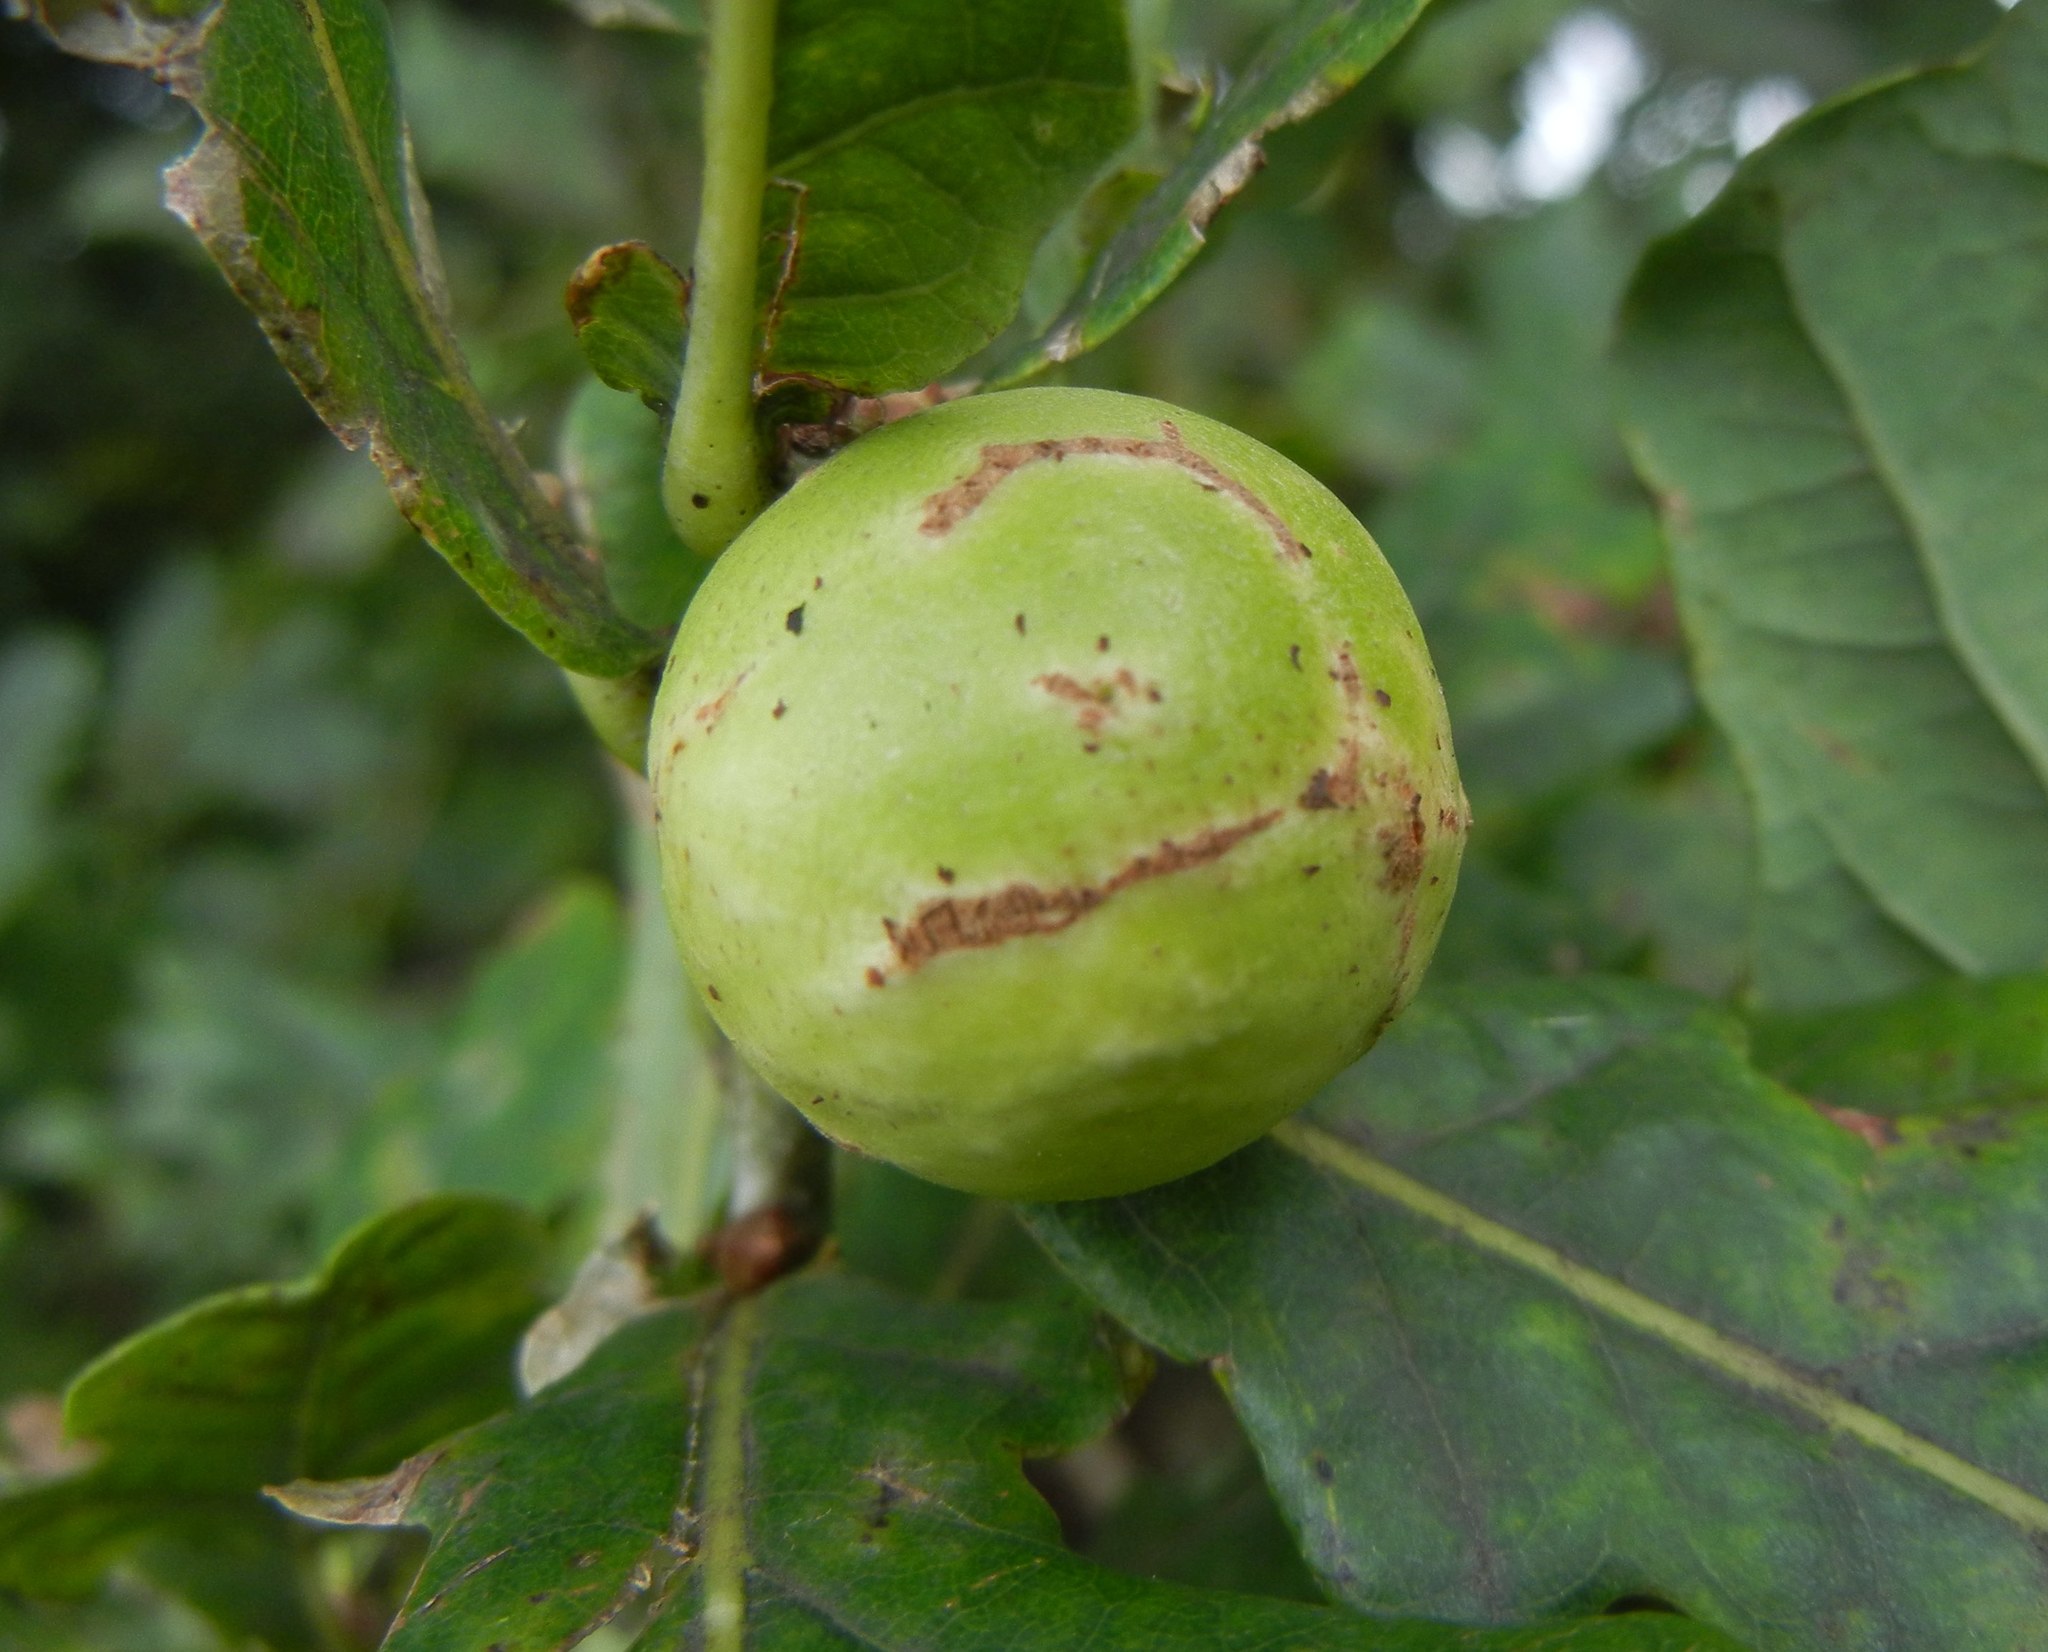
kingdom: Animalia
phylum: Arthropoda
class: Insecta
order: Hymenoptera
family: Cynipidae
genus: Andricus
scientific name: Andricus kollari
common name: Marble gall
